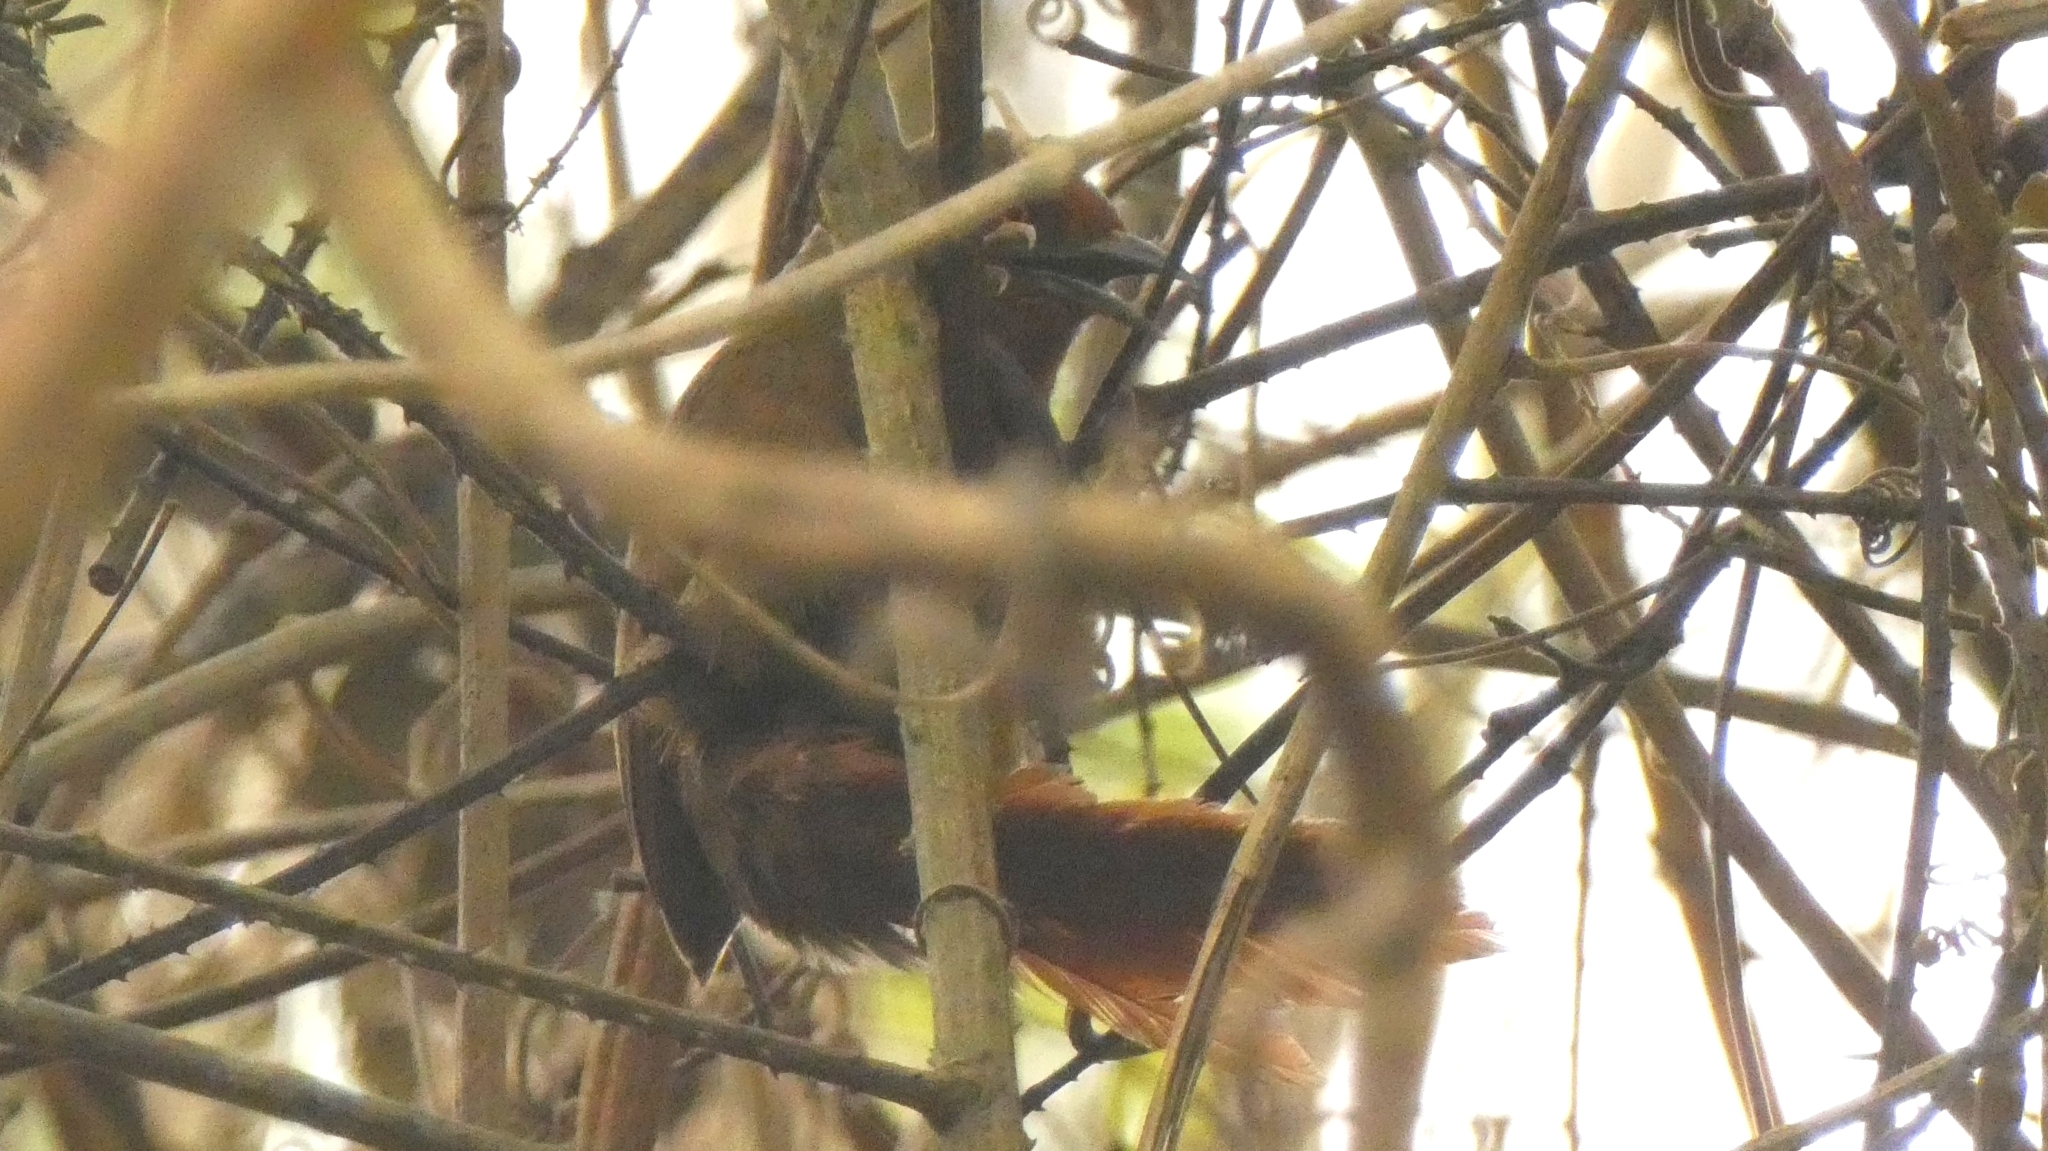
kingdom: Animalia
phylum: Chordata
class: Aves
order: Passeriformes
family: Furnariidae
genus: Phacellodomus
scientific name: Phacellodomus erythrophthalmus
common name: Orange-eyed thornbird
